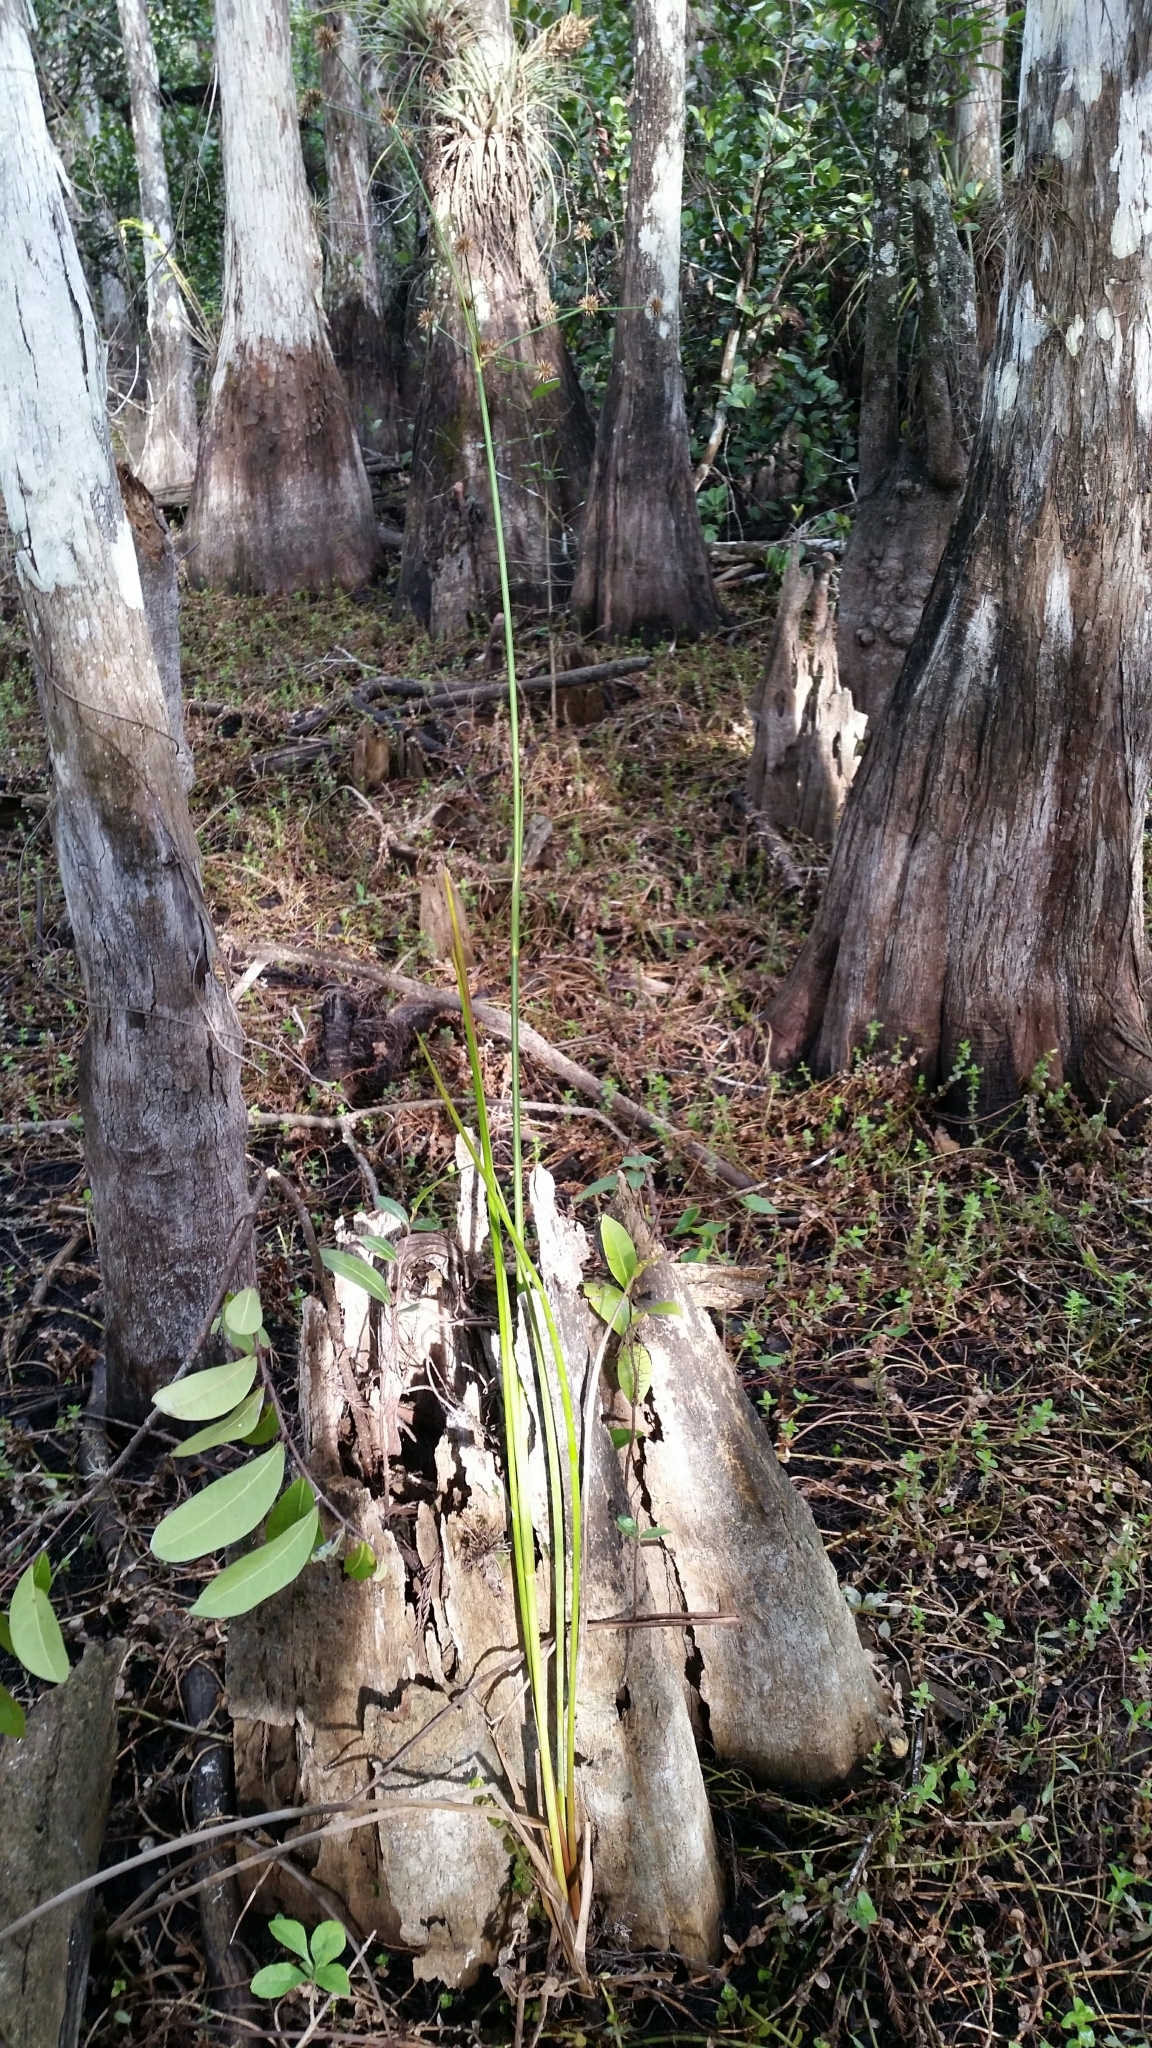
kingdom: Plantae
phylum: Tracheophyta
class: Liliopsida
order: Poales
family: Juncaceae
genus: Juncus
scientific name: Juncus paludosus
